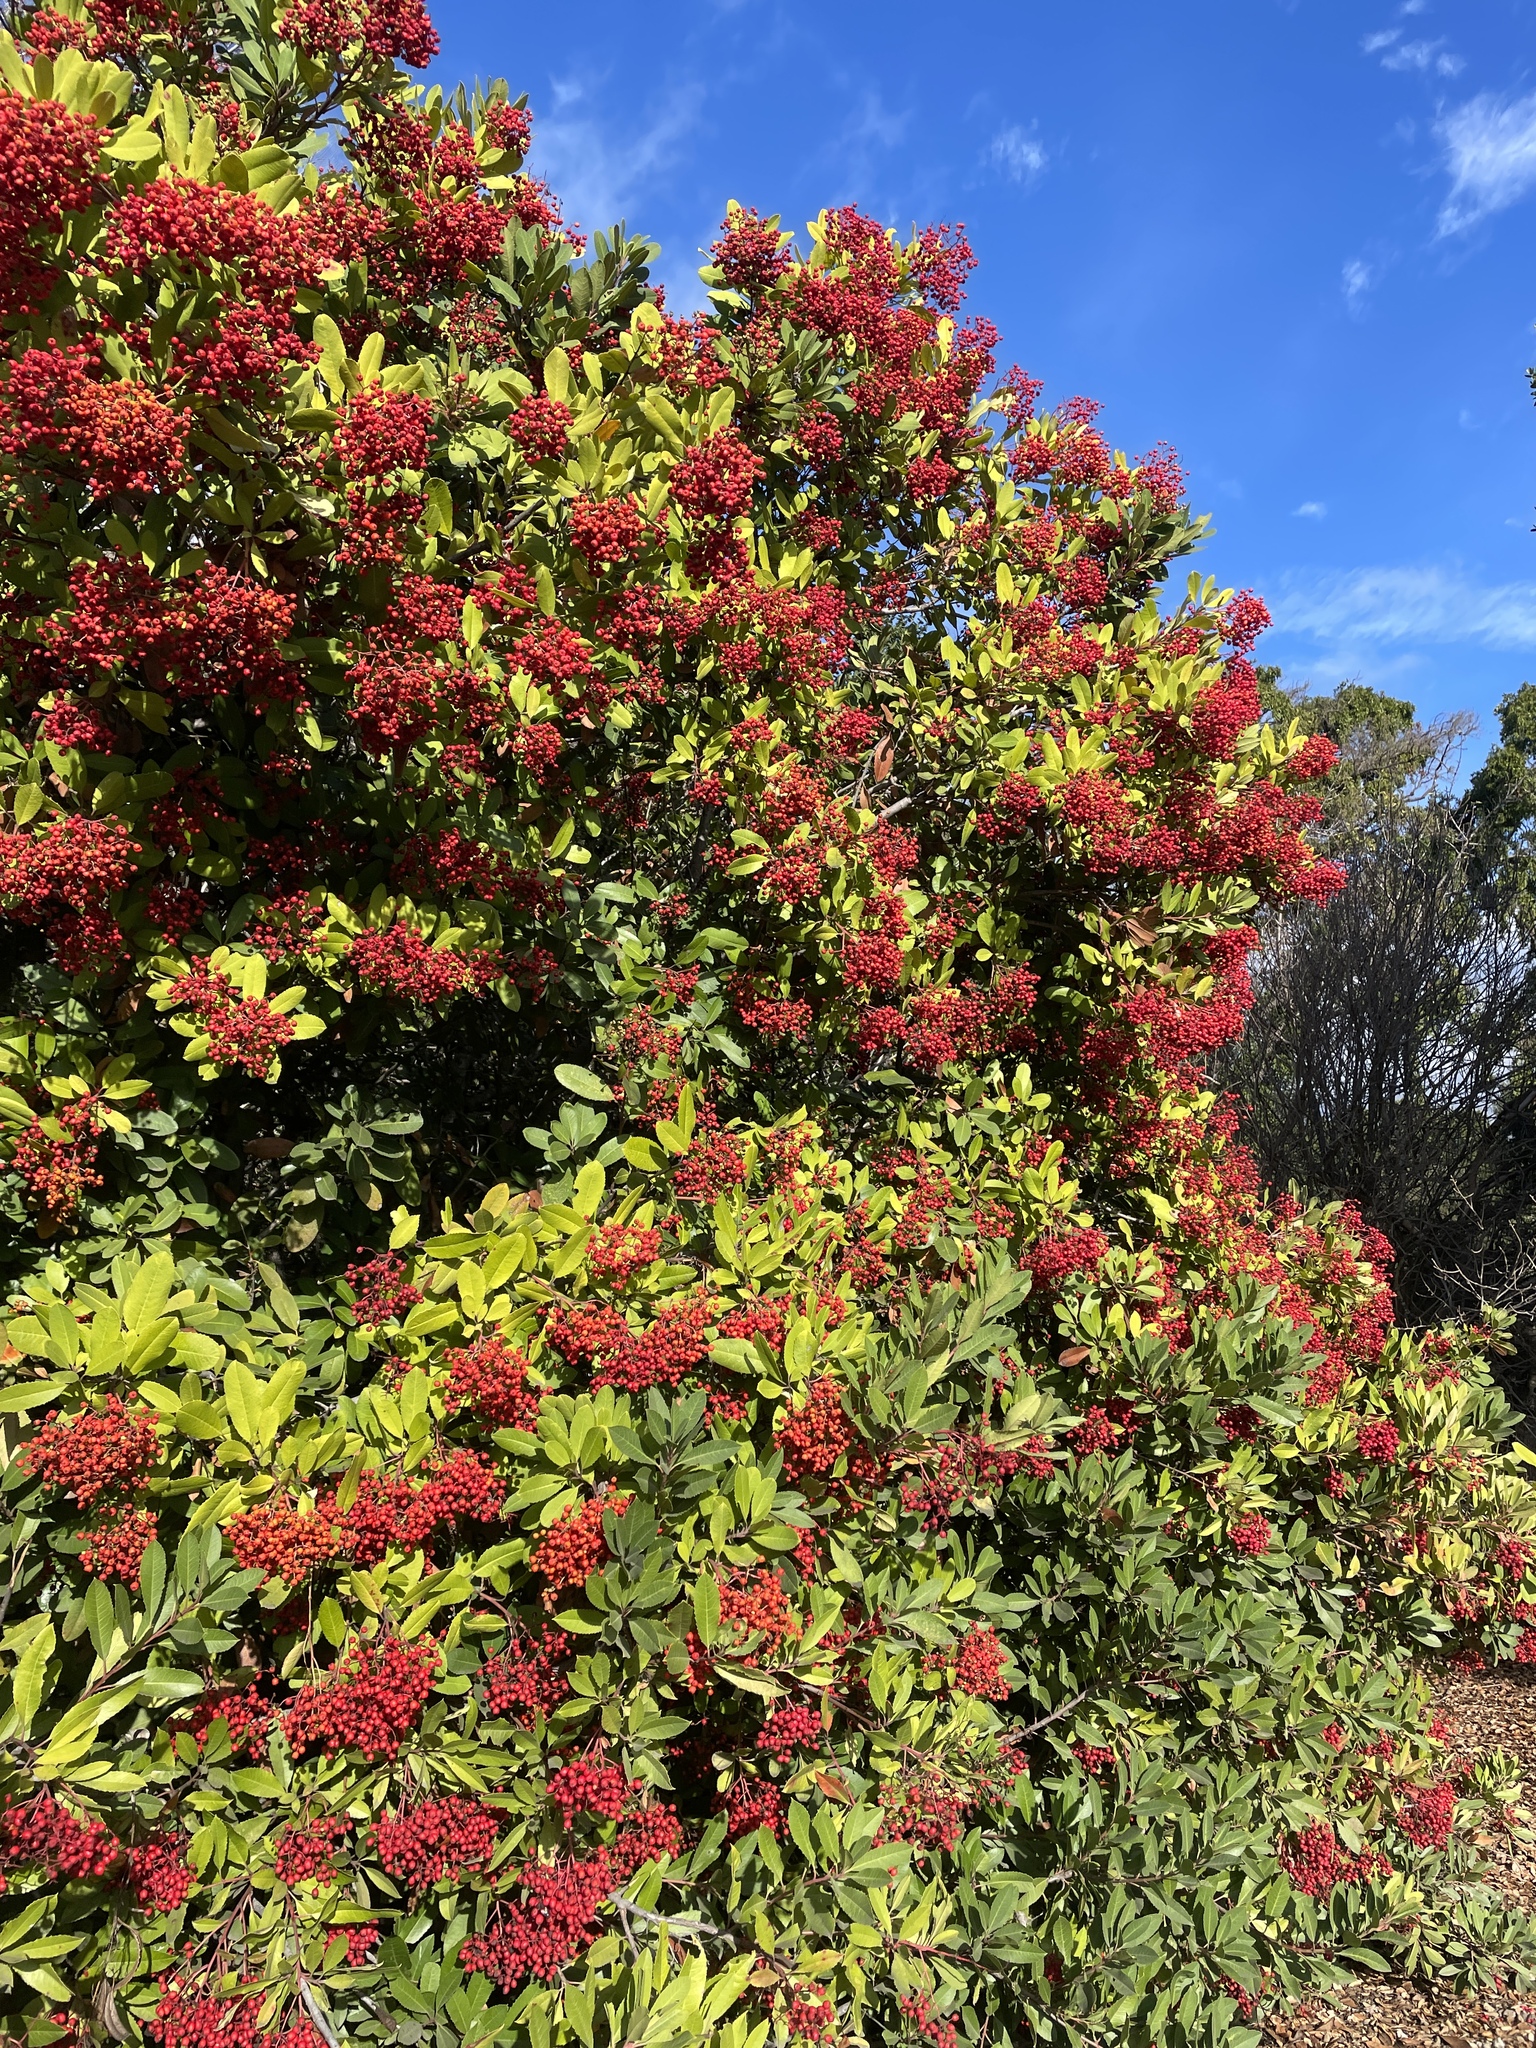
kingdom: Plantae
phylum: Tracheophyta
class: Magnoliopsida
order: Rosales
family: Rosaceae
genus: Heteromeles
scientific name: Heteromeles arbutifolia
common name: California-holly
